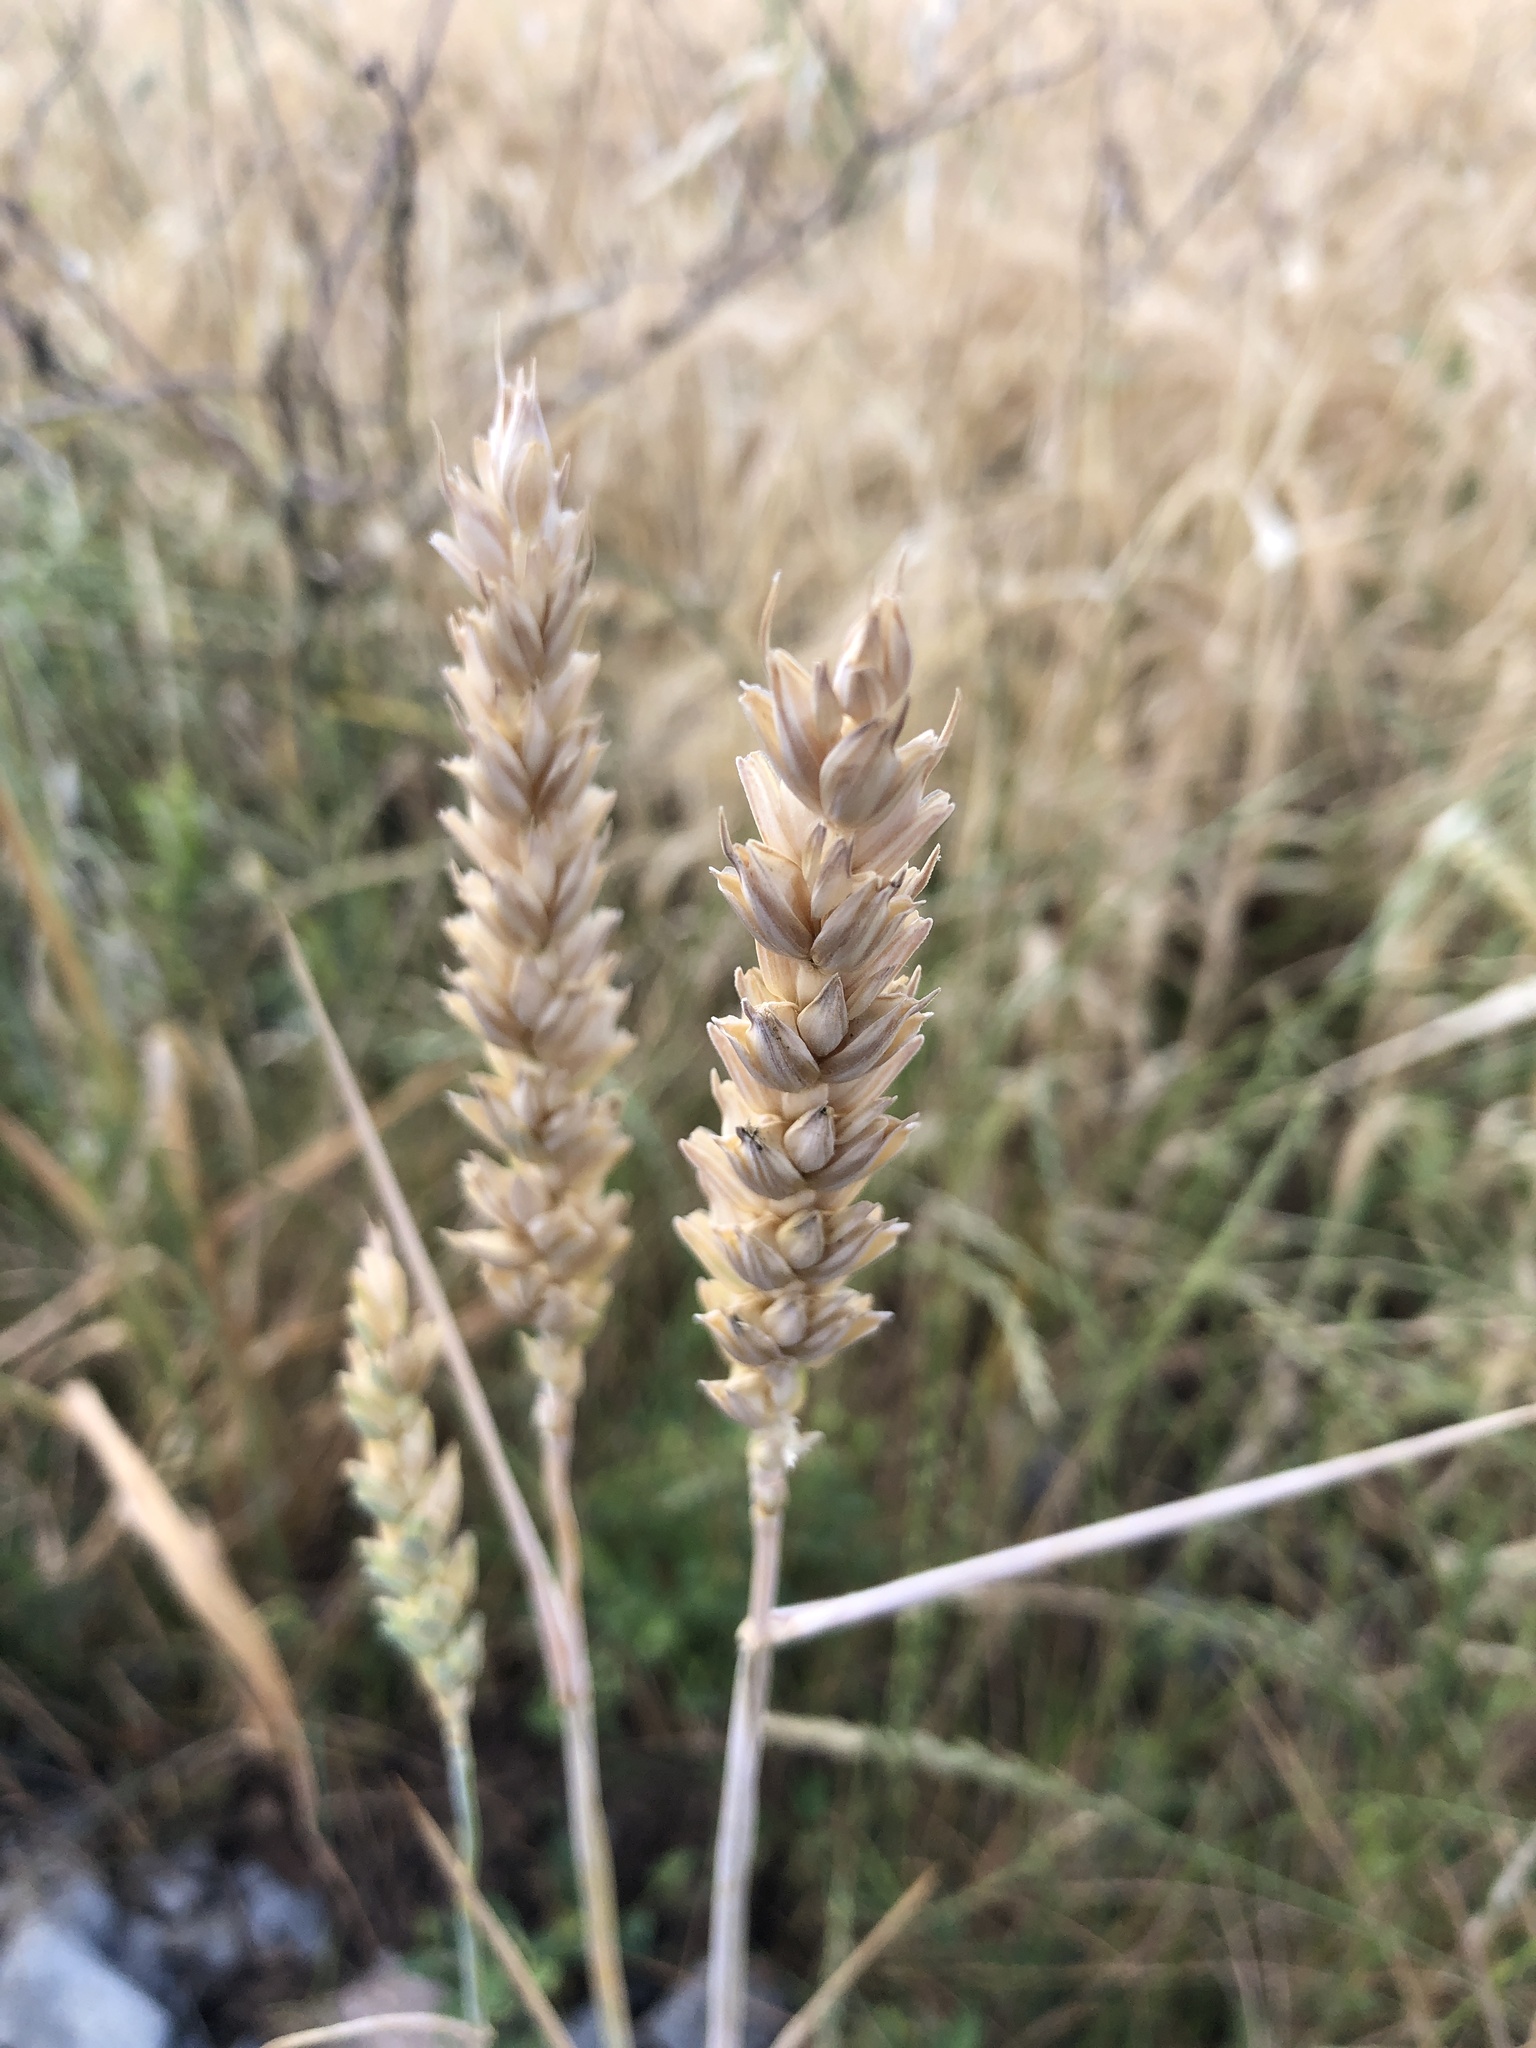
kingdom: Plantae
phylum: Tracheophyta
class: Liliopsida
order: Poales
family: Poaceae
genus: Triticum
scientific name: Triticum aestivum
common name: Common wheat
